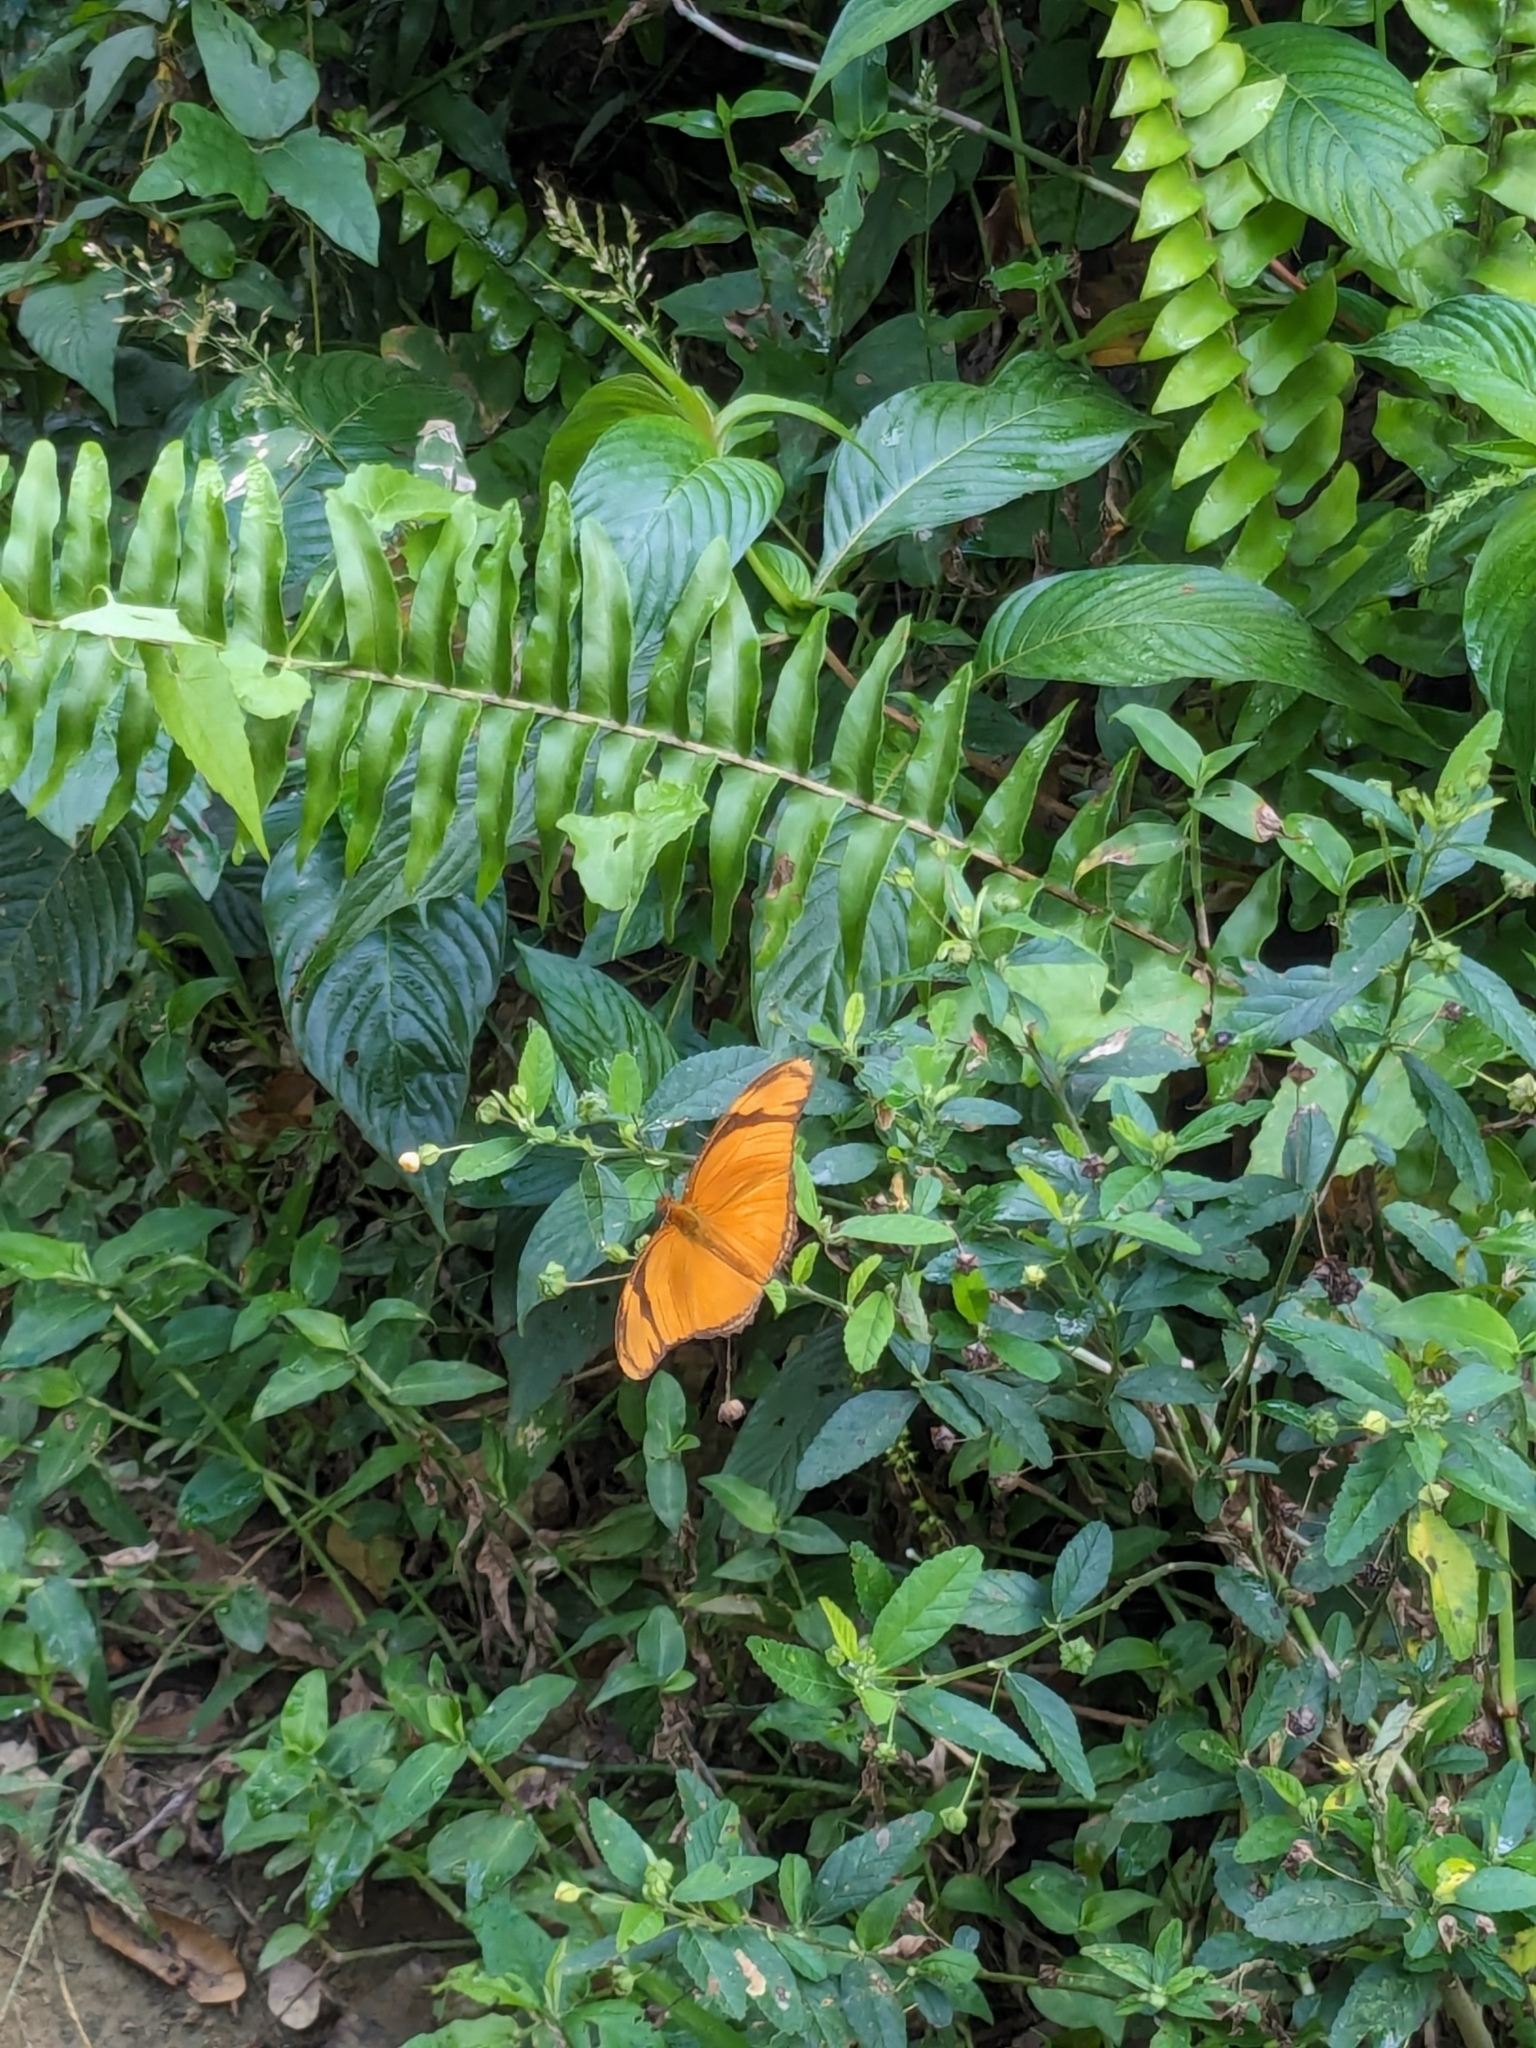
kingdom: Animalia
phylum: Arthropoda
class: Insecta
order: Lepidoptera
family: Nymphalidae
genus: Dryas
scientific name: Dryas iulia
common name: Flambeau
